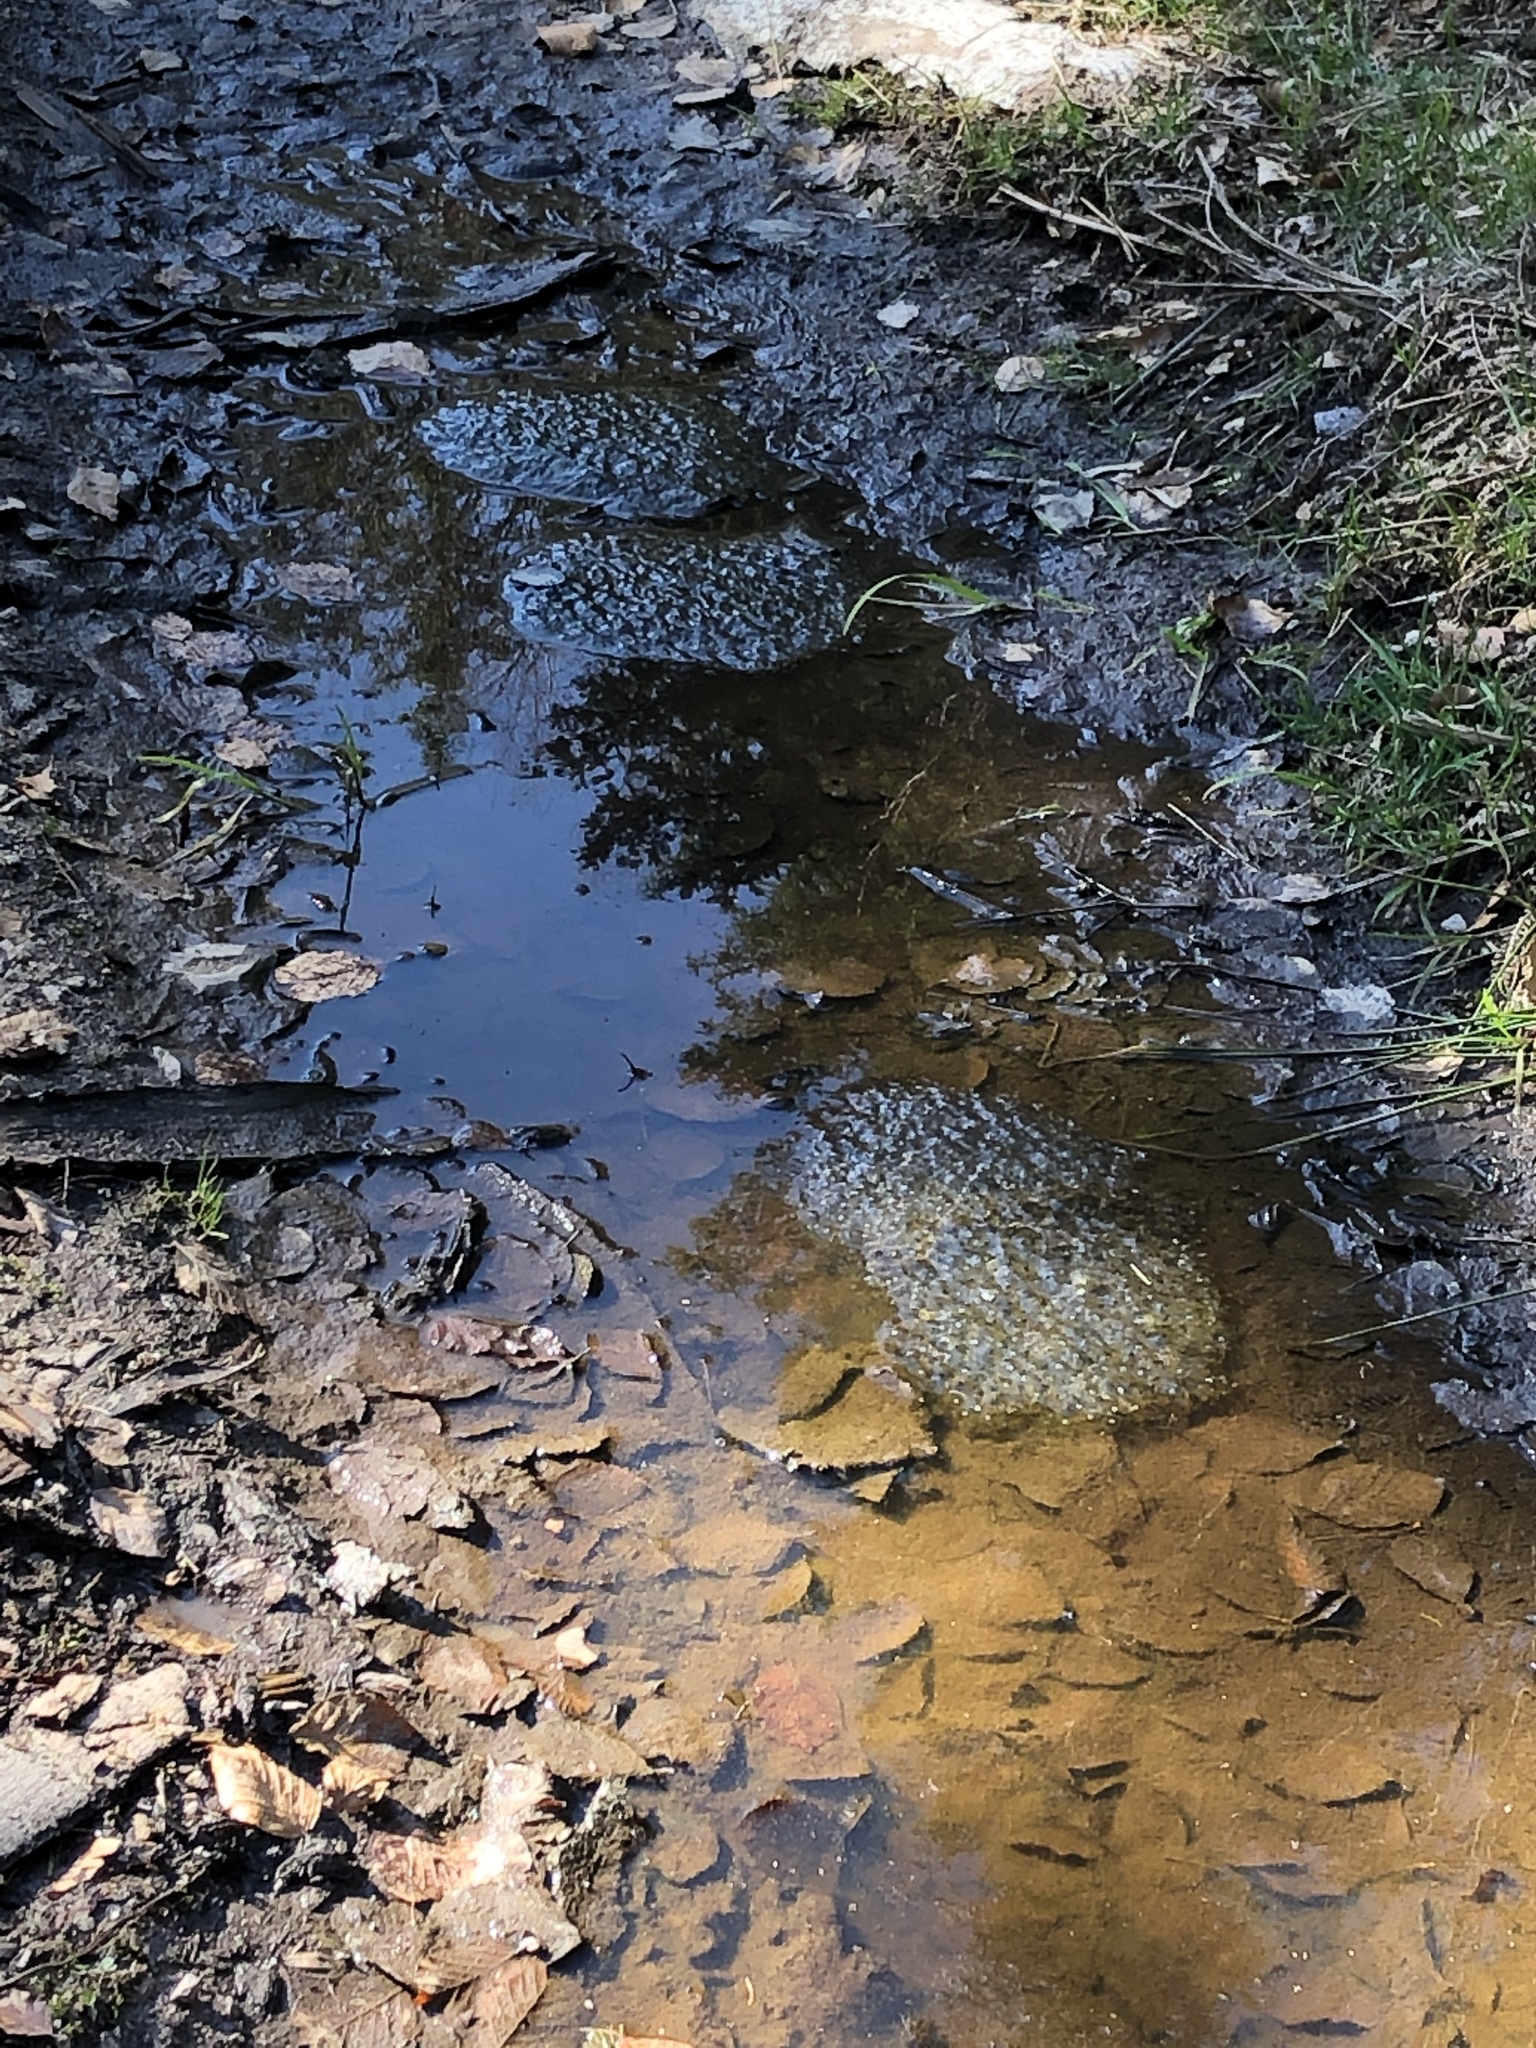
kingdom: Animalia
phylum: Chordata
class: Amphibia
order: Anura
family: Ranidae
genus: Rana
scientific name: Rana temporaria
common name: Common frog
